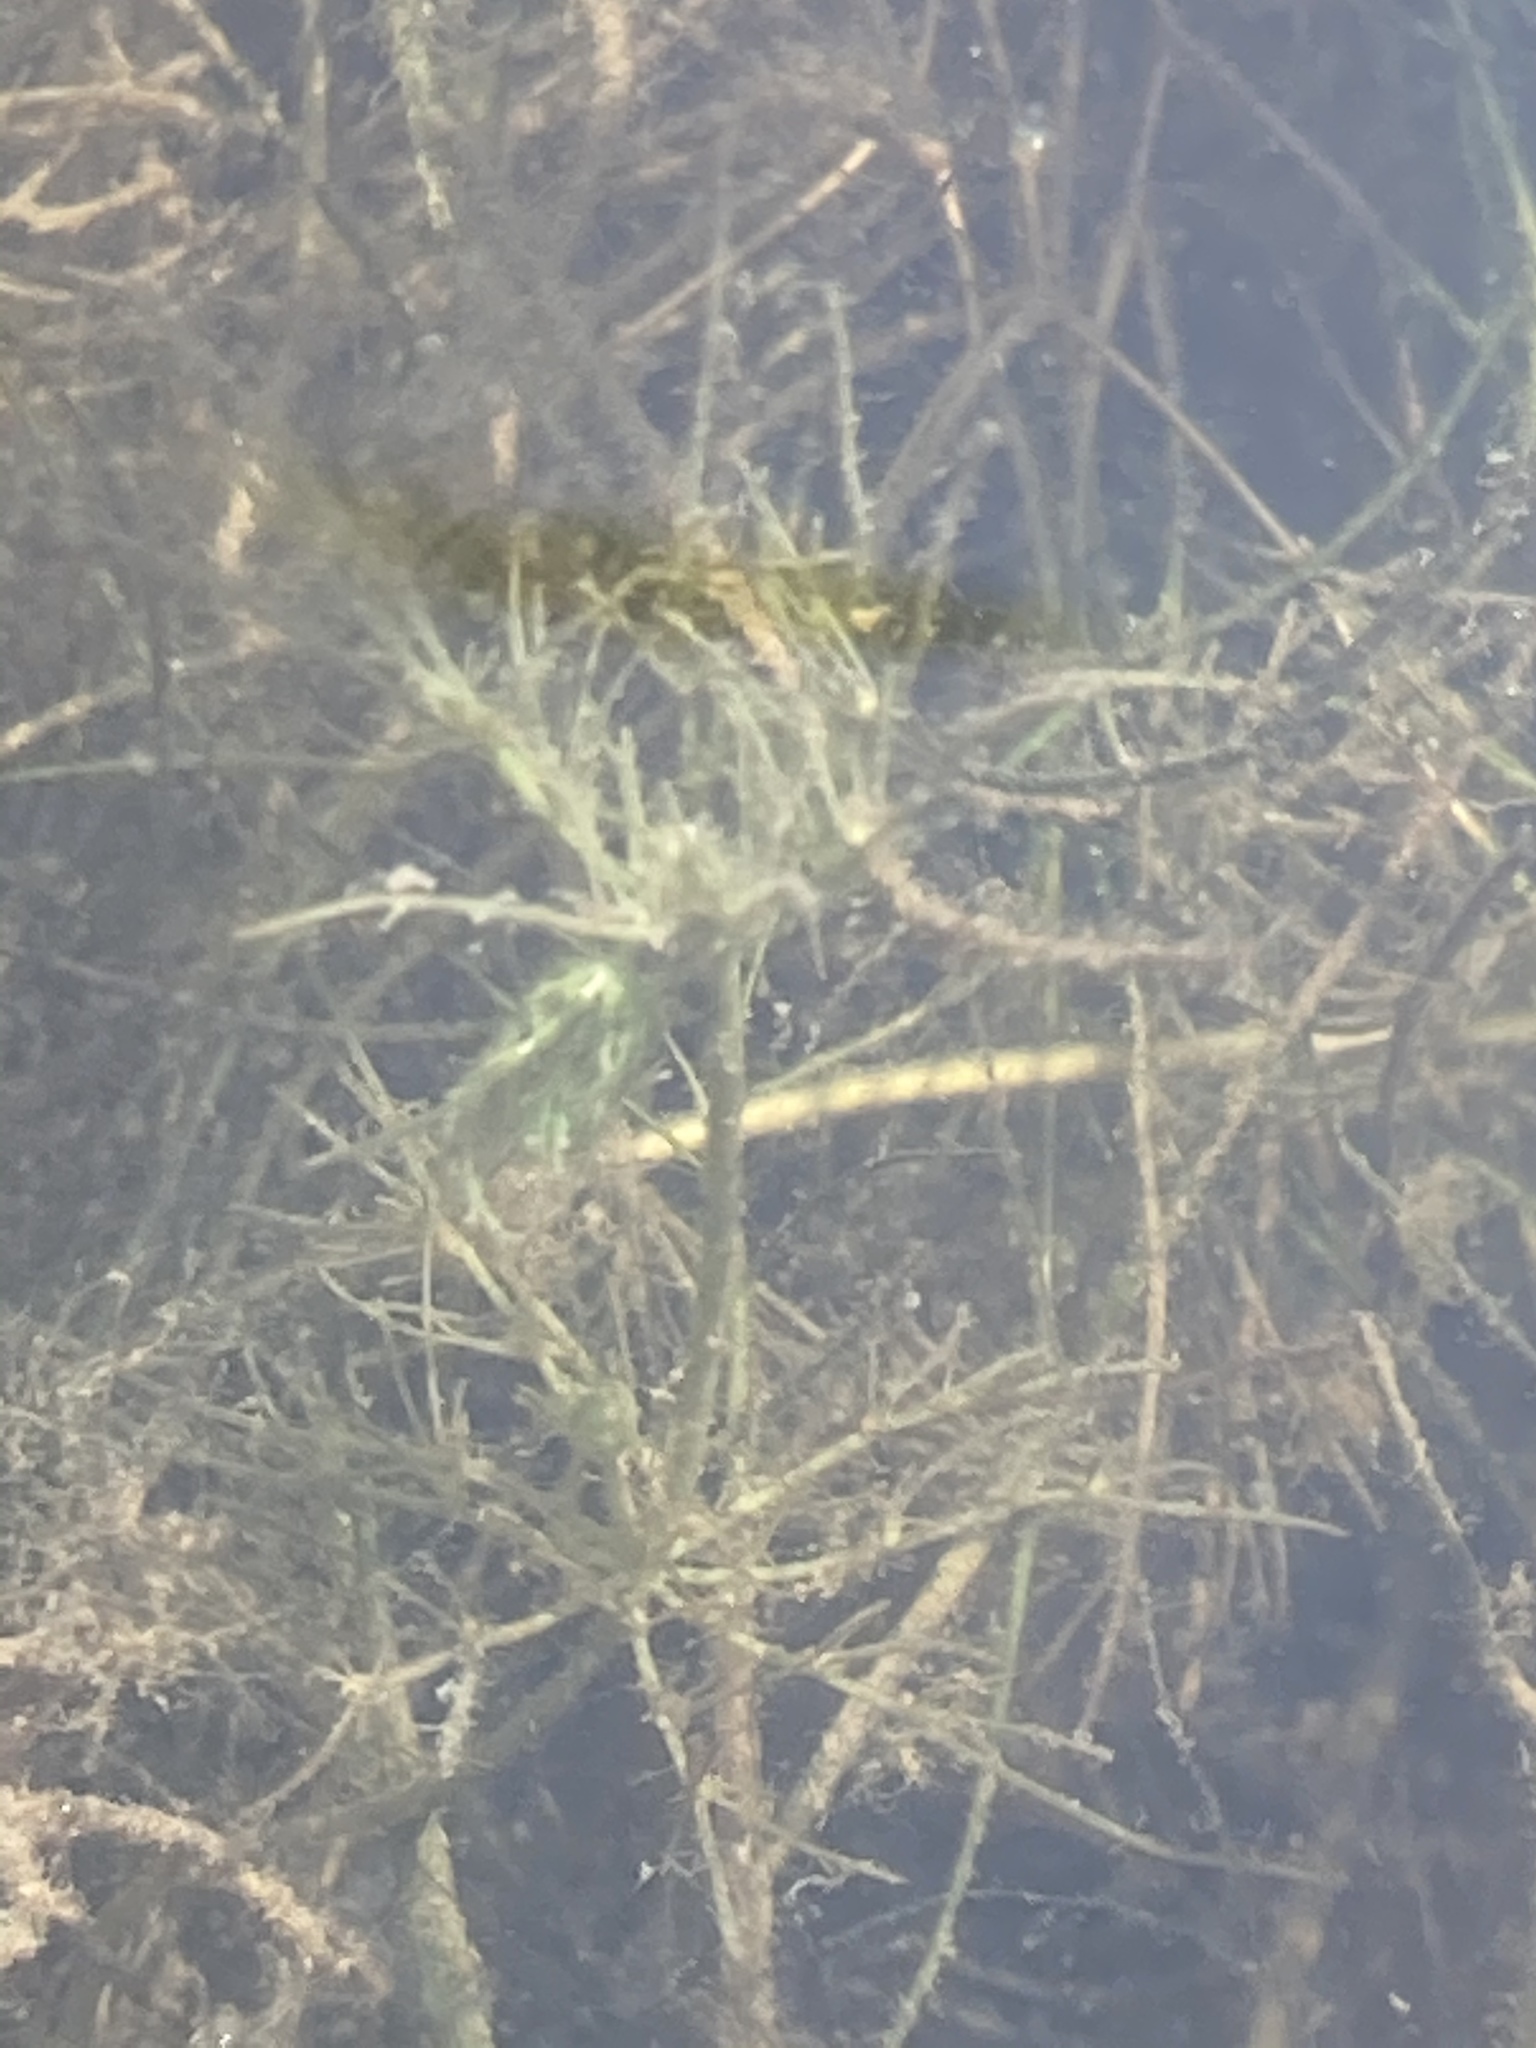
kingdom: Plantae
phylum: Charophyta
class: Charophyceae
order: Charales
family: Characeae
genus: Chara
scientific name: Chara vulgaris
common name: Common stonewort
